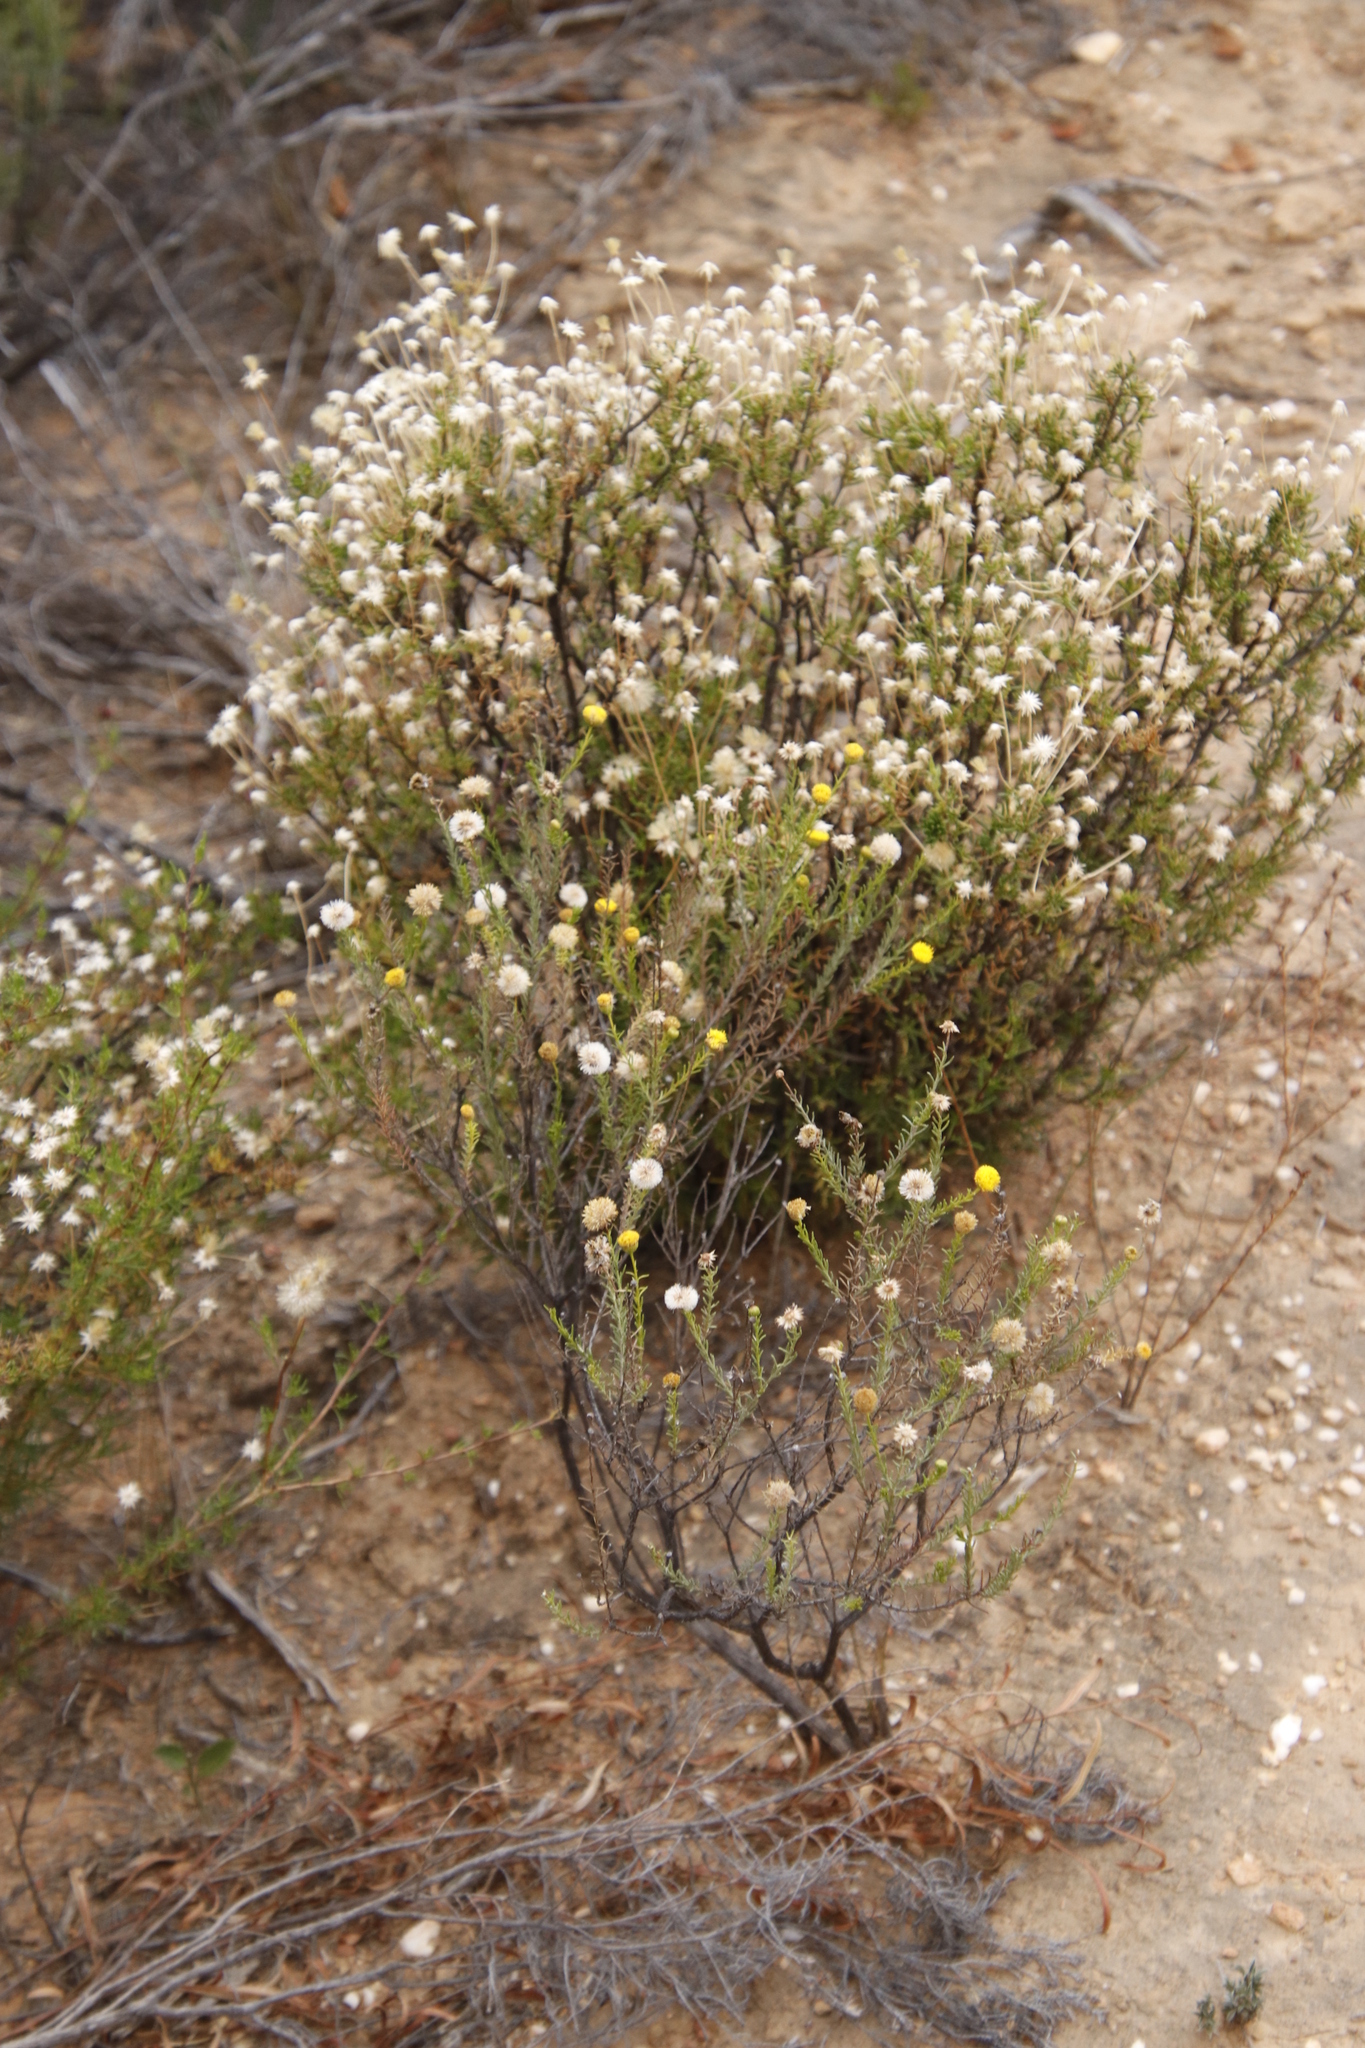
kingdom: Plantae
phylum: Tracheophyta
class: Magnoliopsida
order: Asterales
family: Asteraceae
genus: Chrysocoma
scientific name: Chrysocoma ciliata
